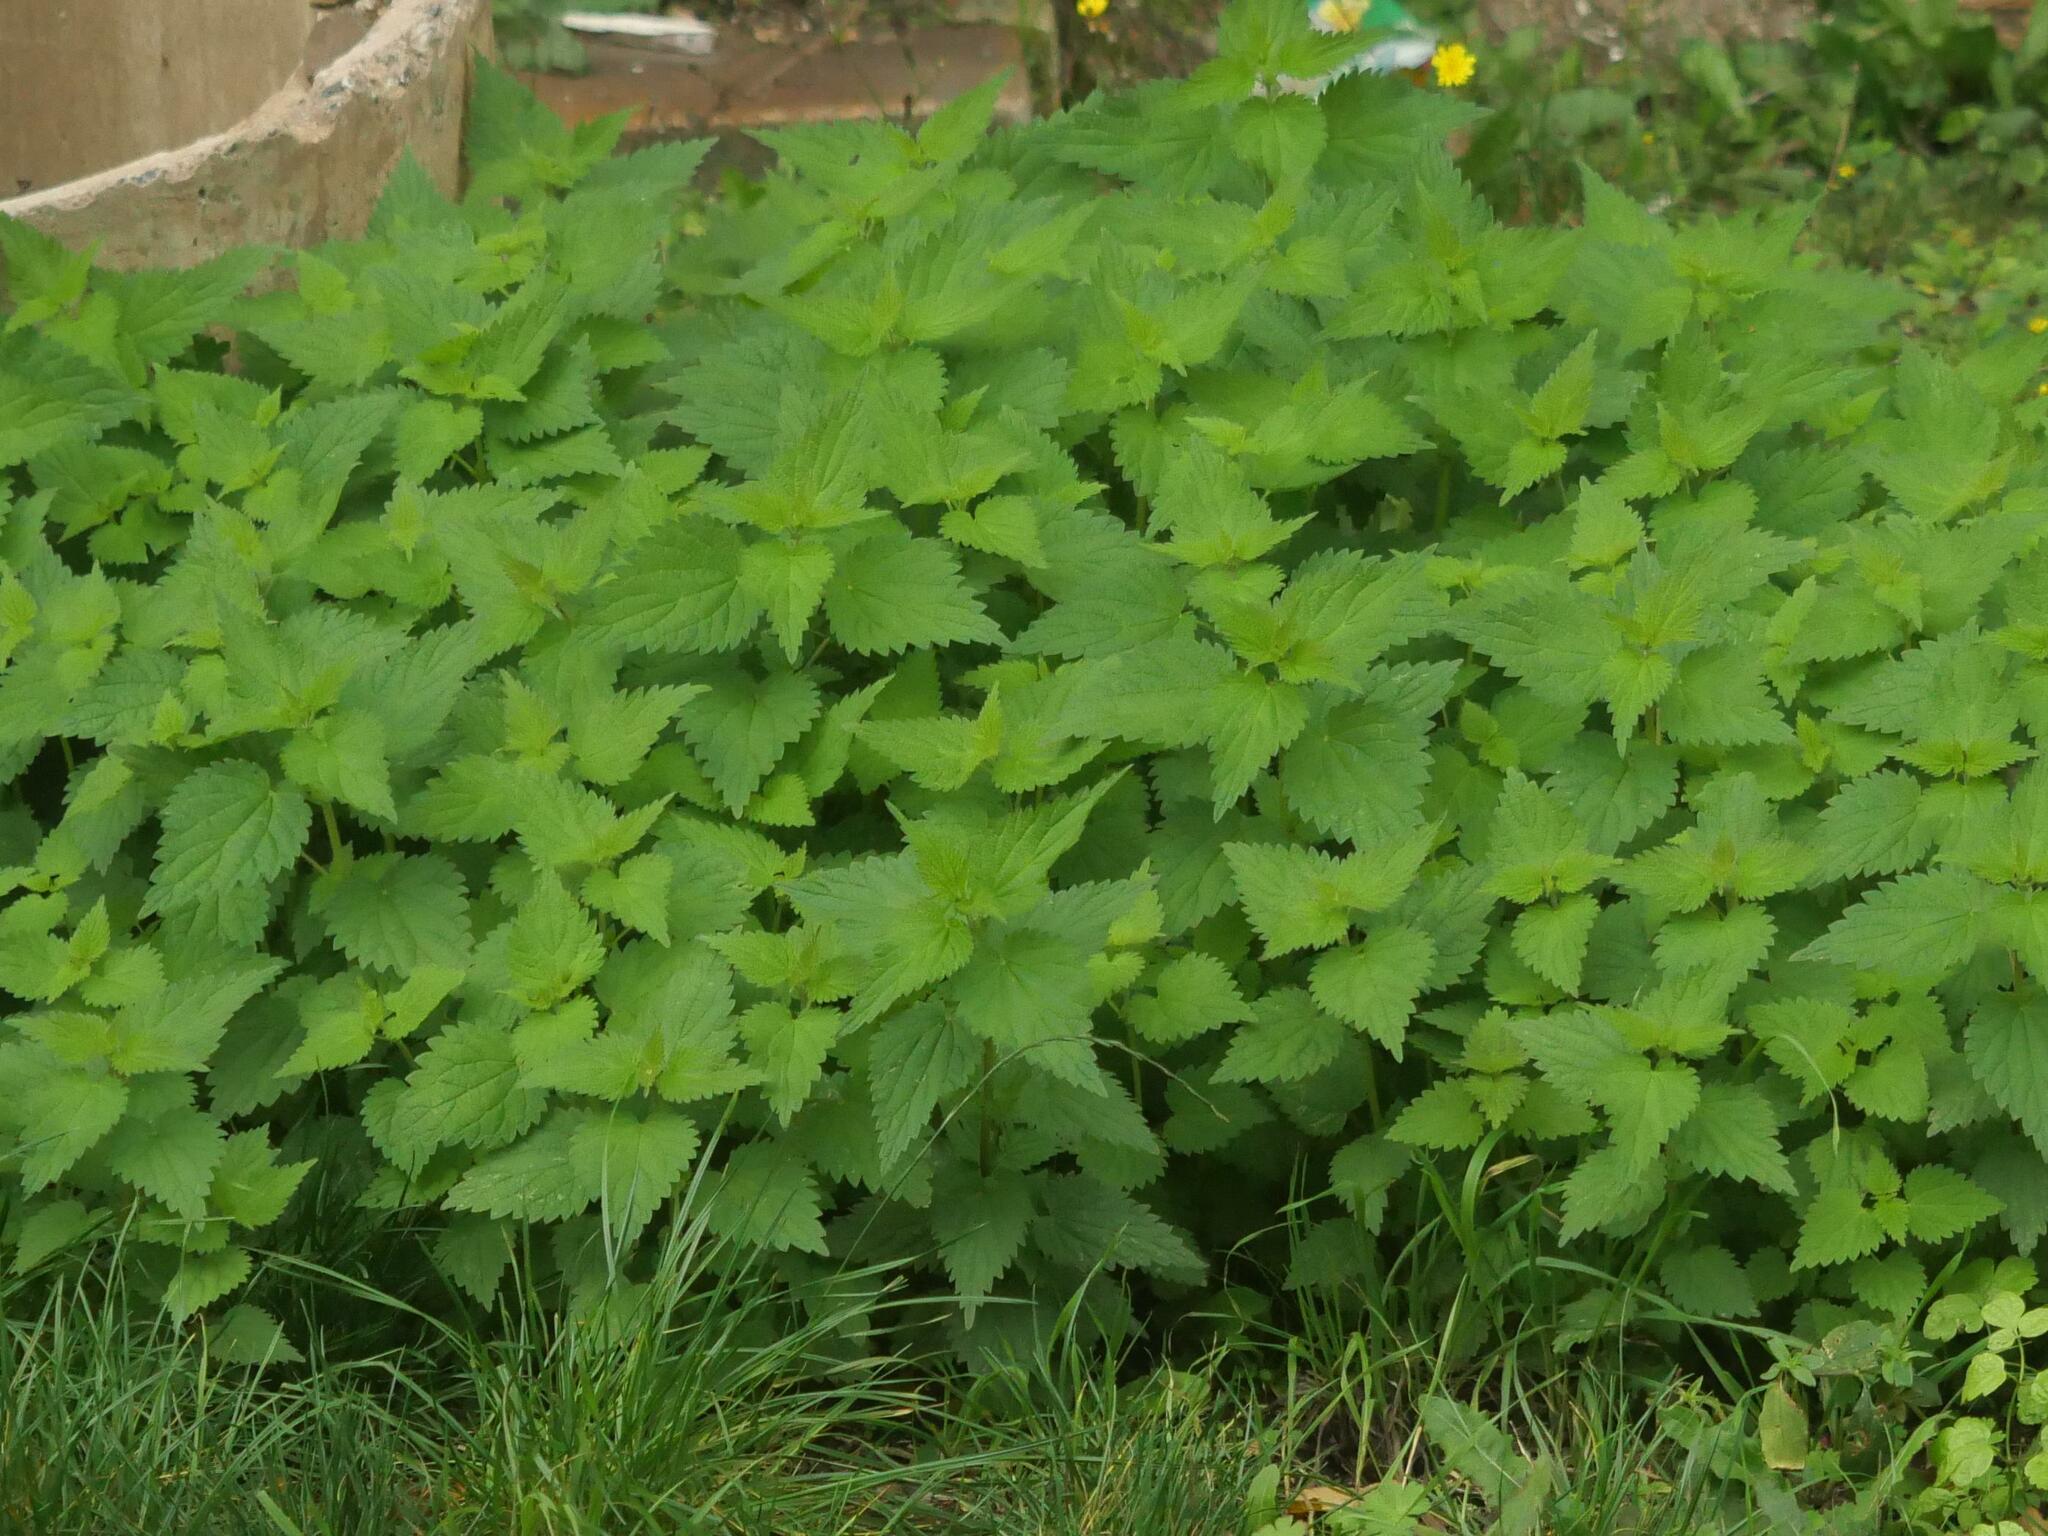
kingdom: Plantae
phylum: Tracheophyta
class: Magnoliopsida
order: Rosales
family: Urticaceae
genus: Urtica
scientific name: Urtica dioica
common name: Common nettle
